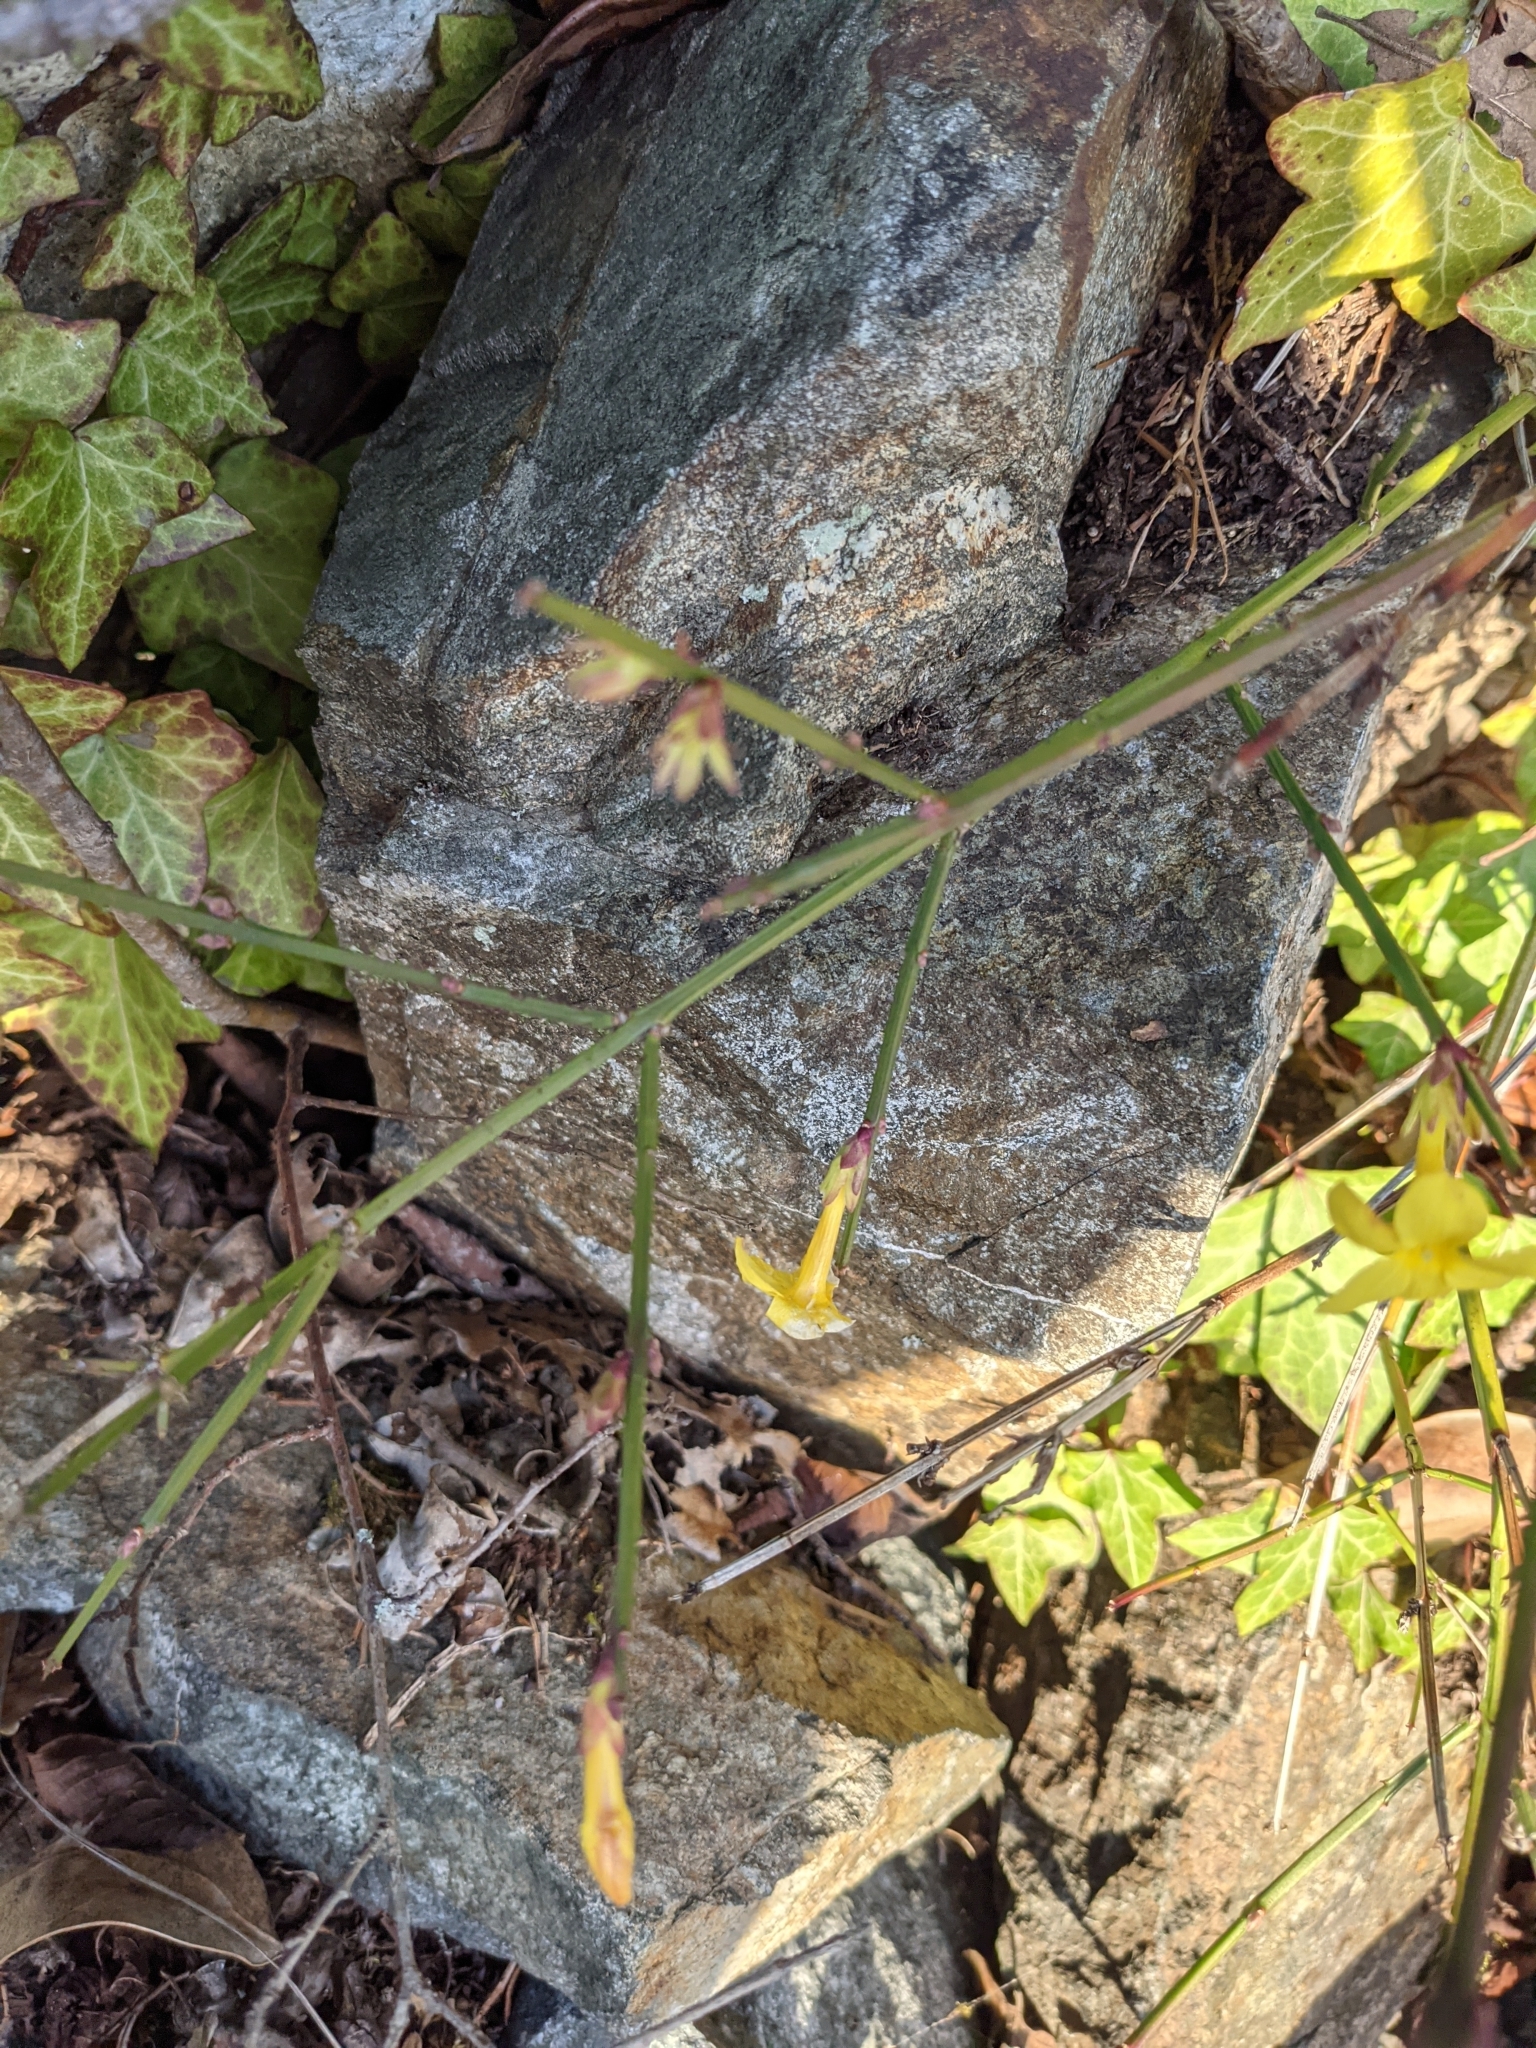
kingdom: Plantae
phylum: Tracheophyta
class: Magnoliopsida
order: Lamiales
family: Oleaceae
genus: Jasminum
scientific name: Jasminum nudiflorum
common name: Winter jasmine
